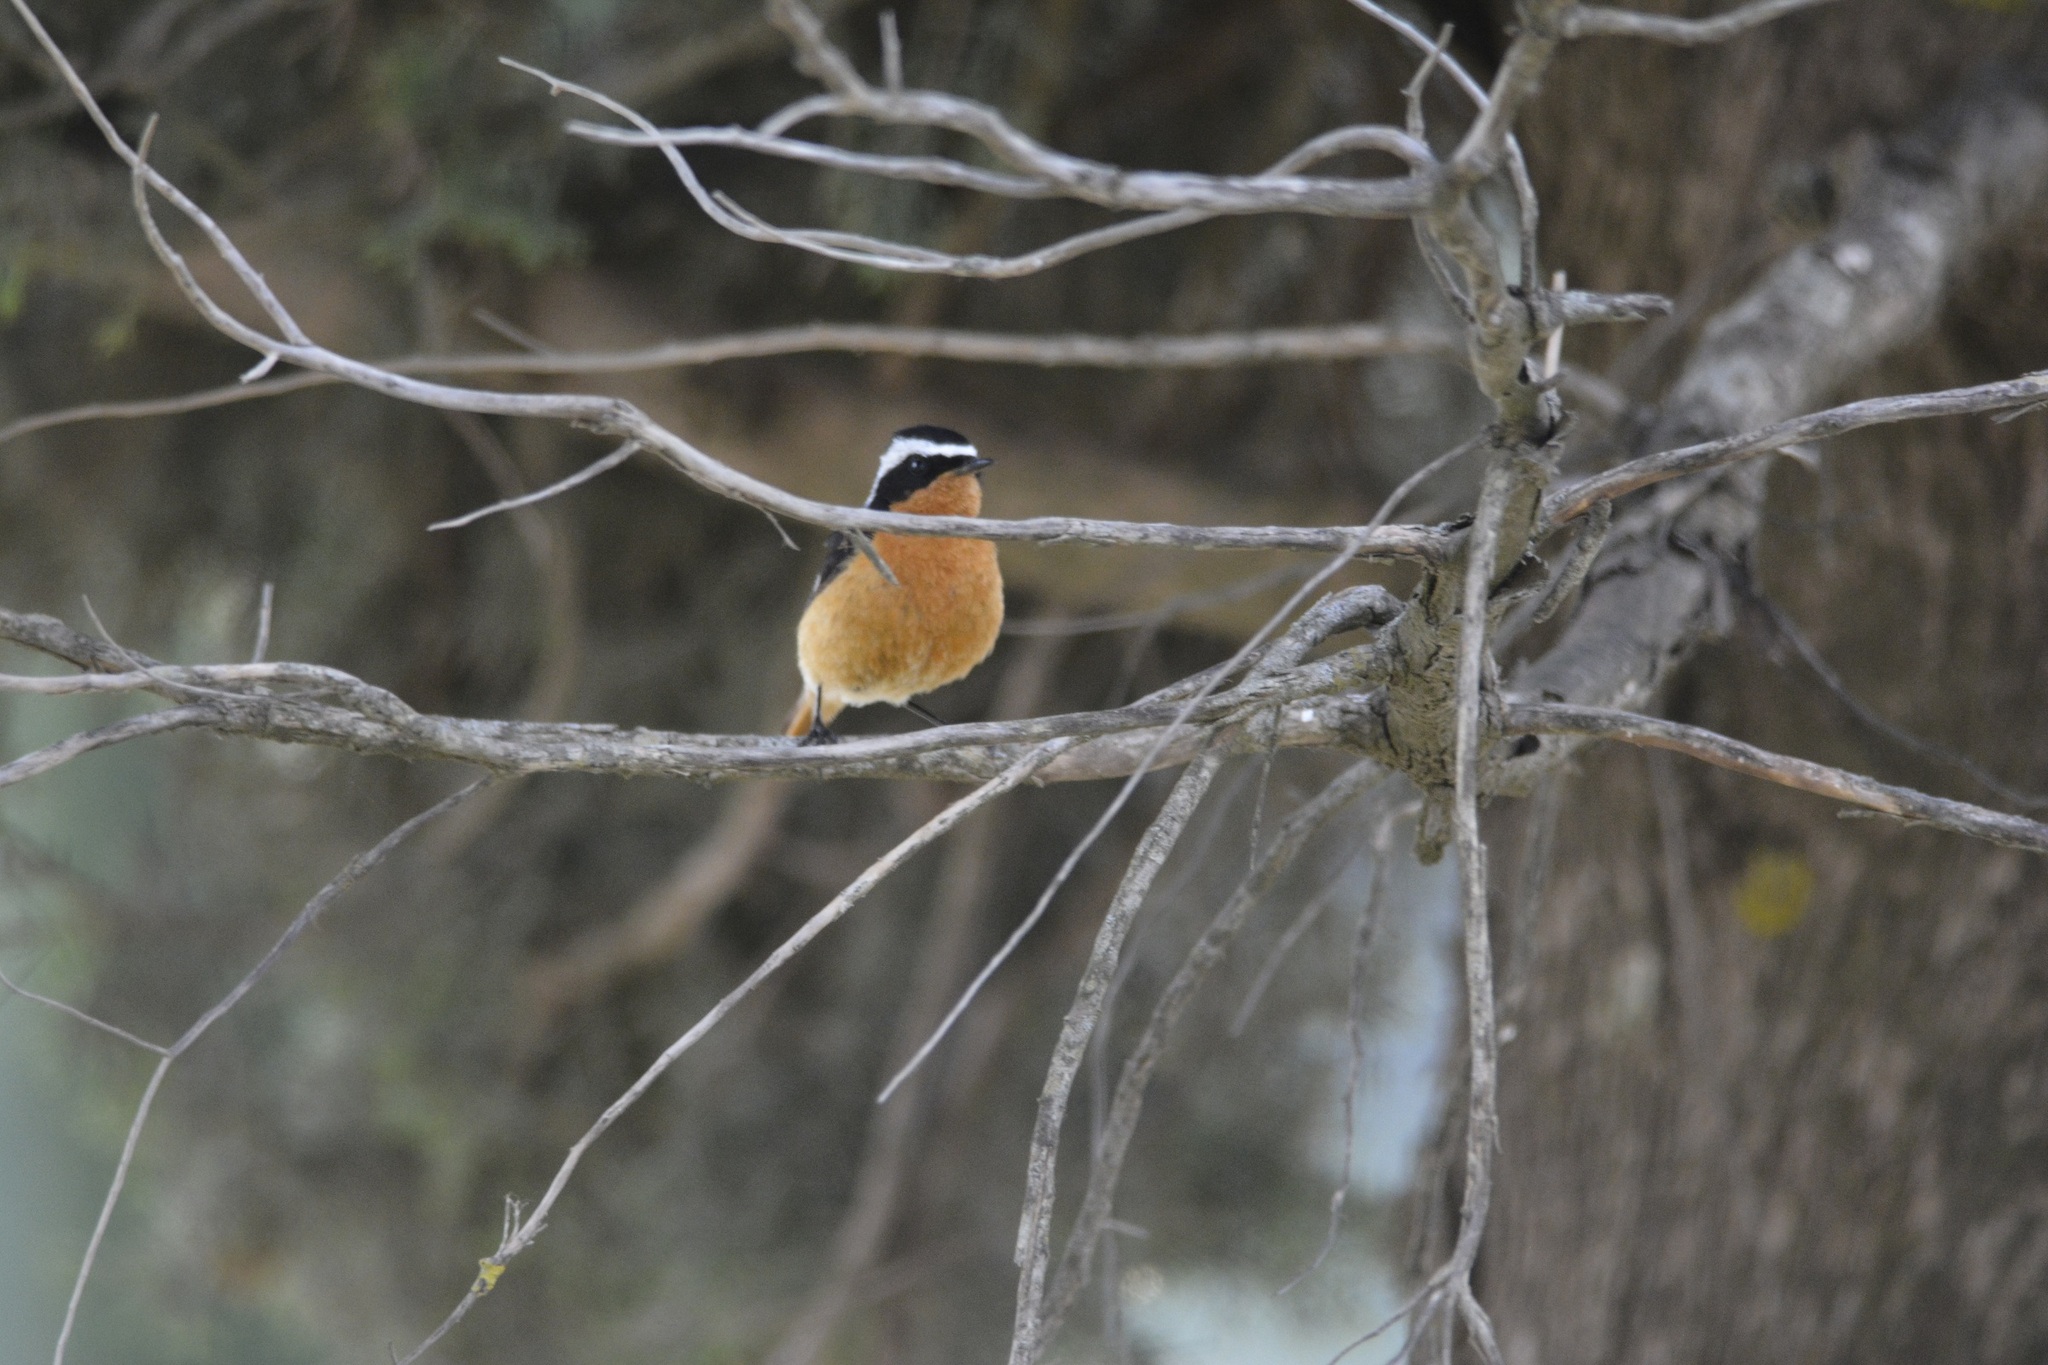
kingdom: Animalia
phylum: Chordata
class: Aves
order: Passeriformes
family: Muscicapidae
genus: Phoenicurus
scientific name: Phoenicurus moussieri
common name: Moussier's redstart
